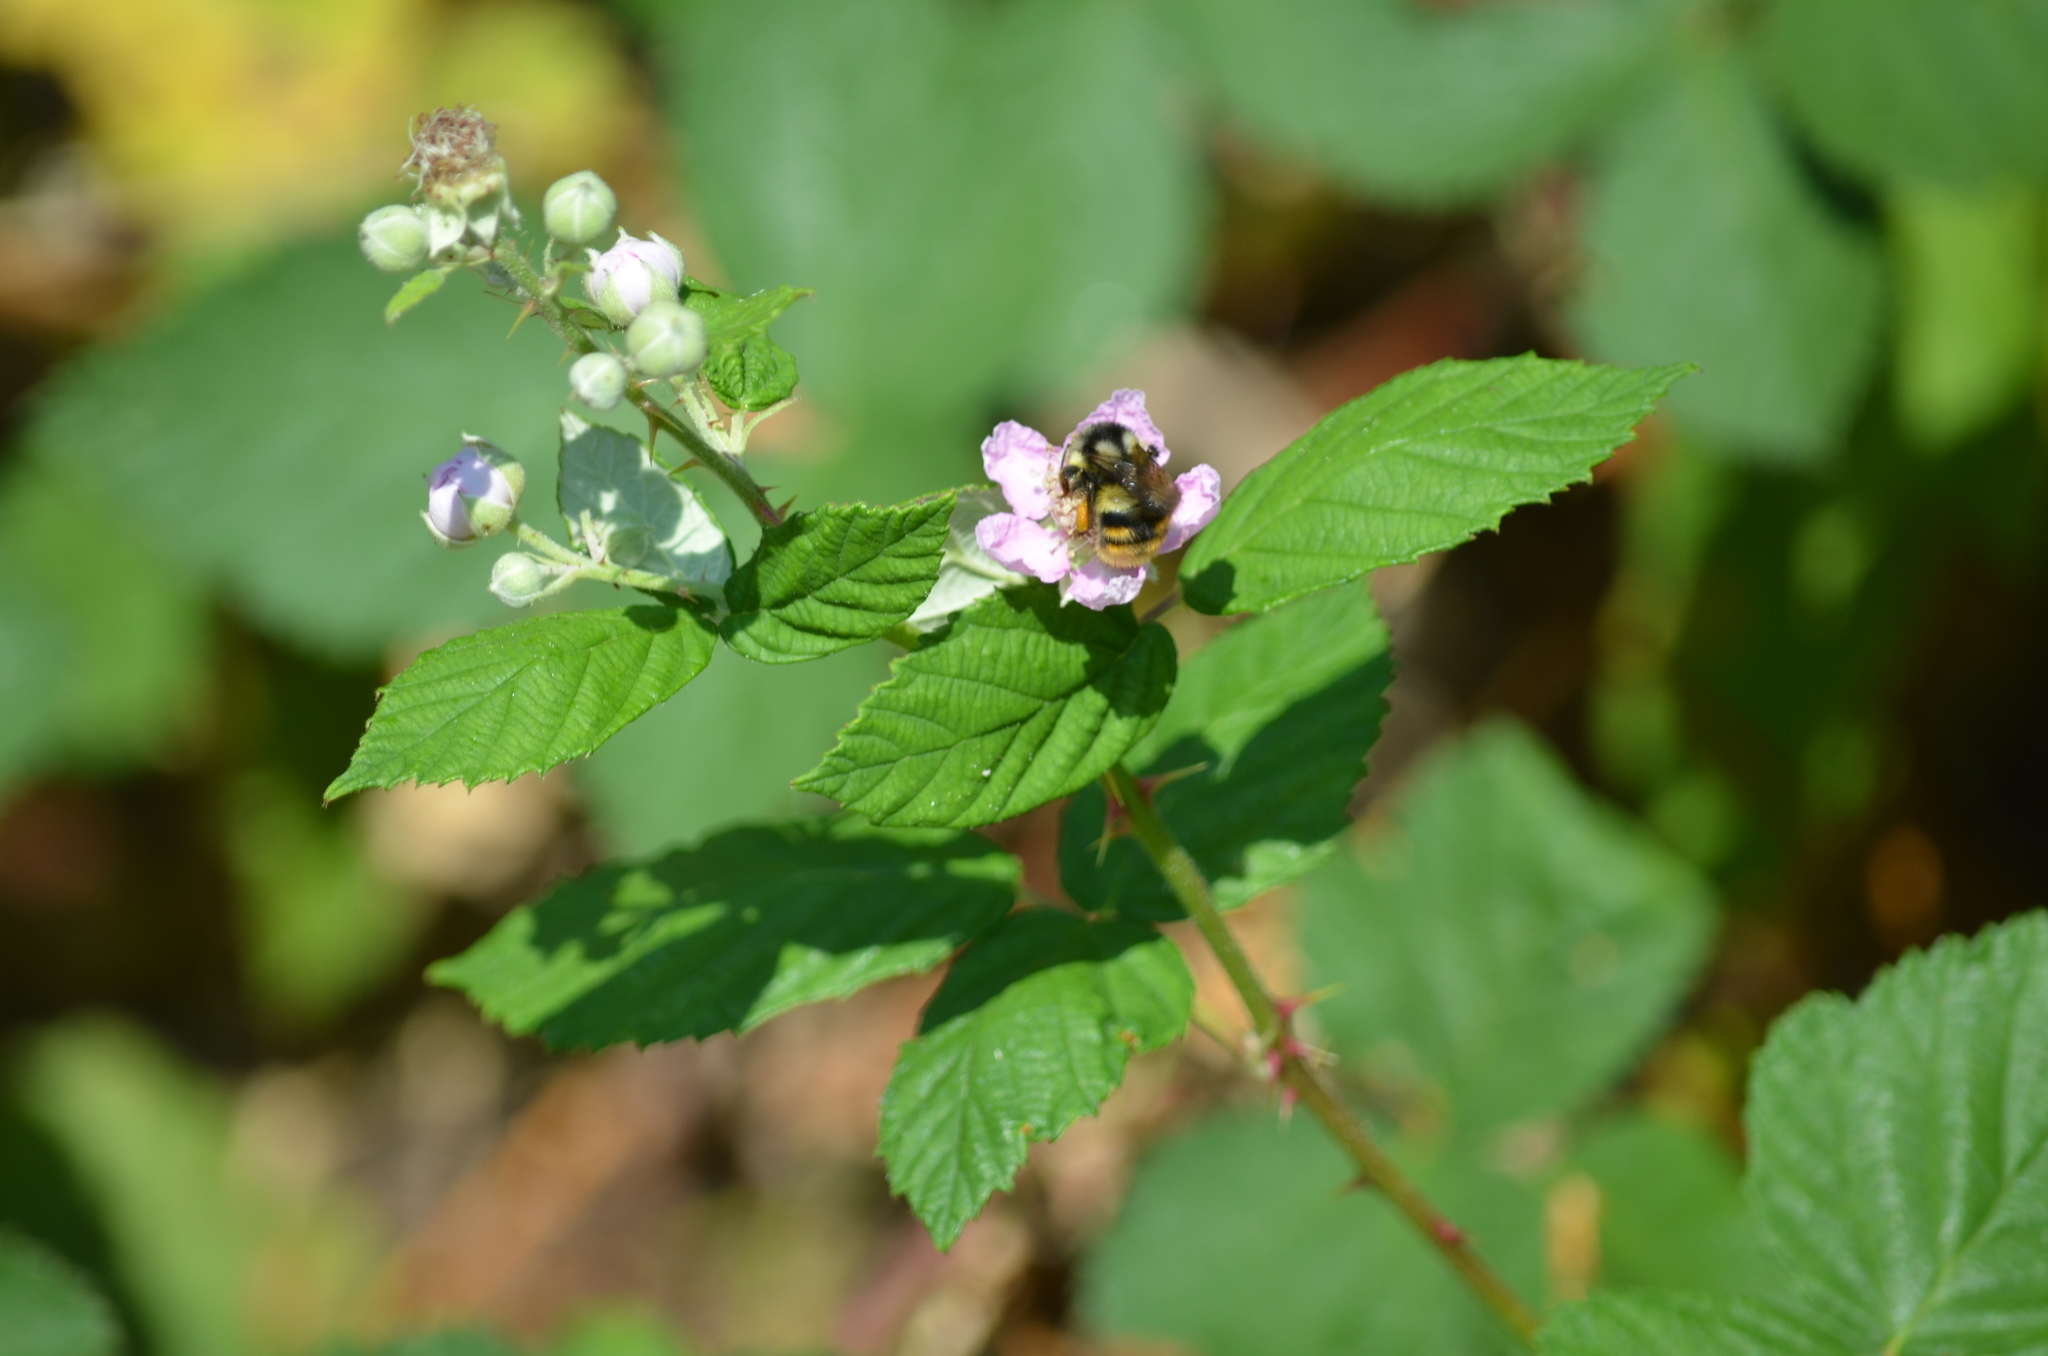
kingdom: Animalia
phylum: Arthropoda
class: Insecta
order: Hymenoptera
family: Apidae
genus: Bombus
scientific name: Bombus vancouverensis
